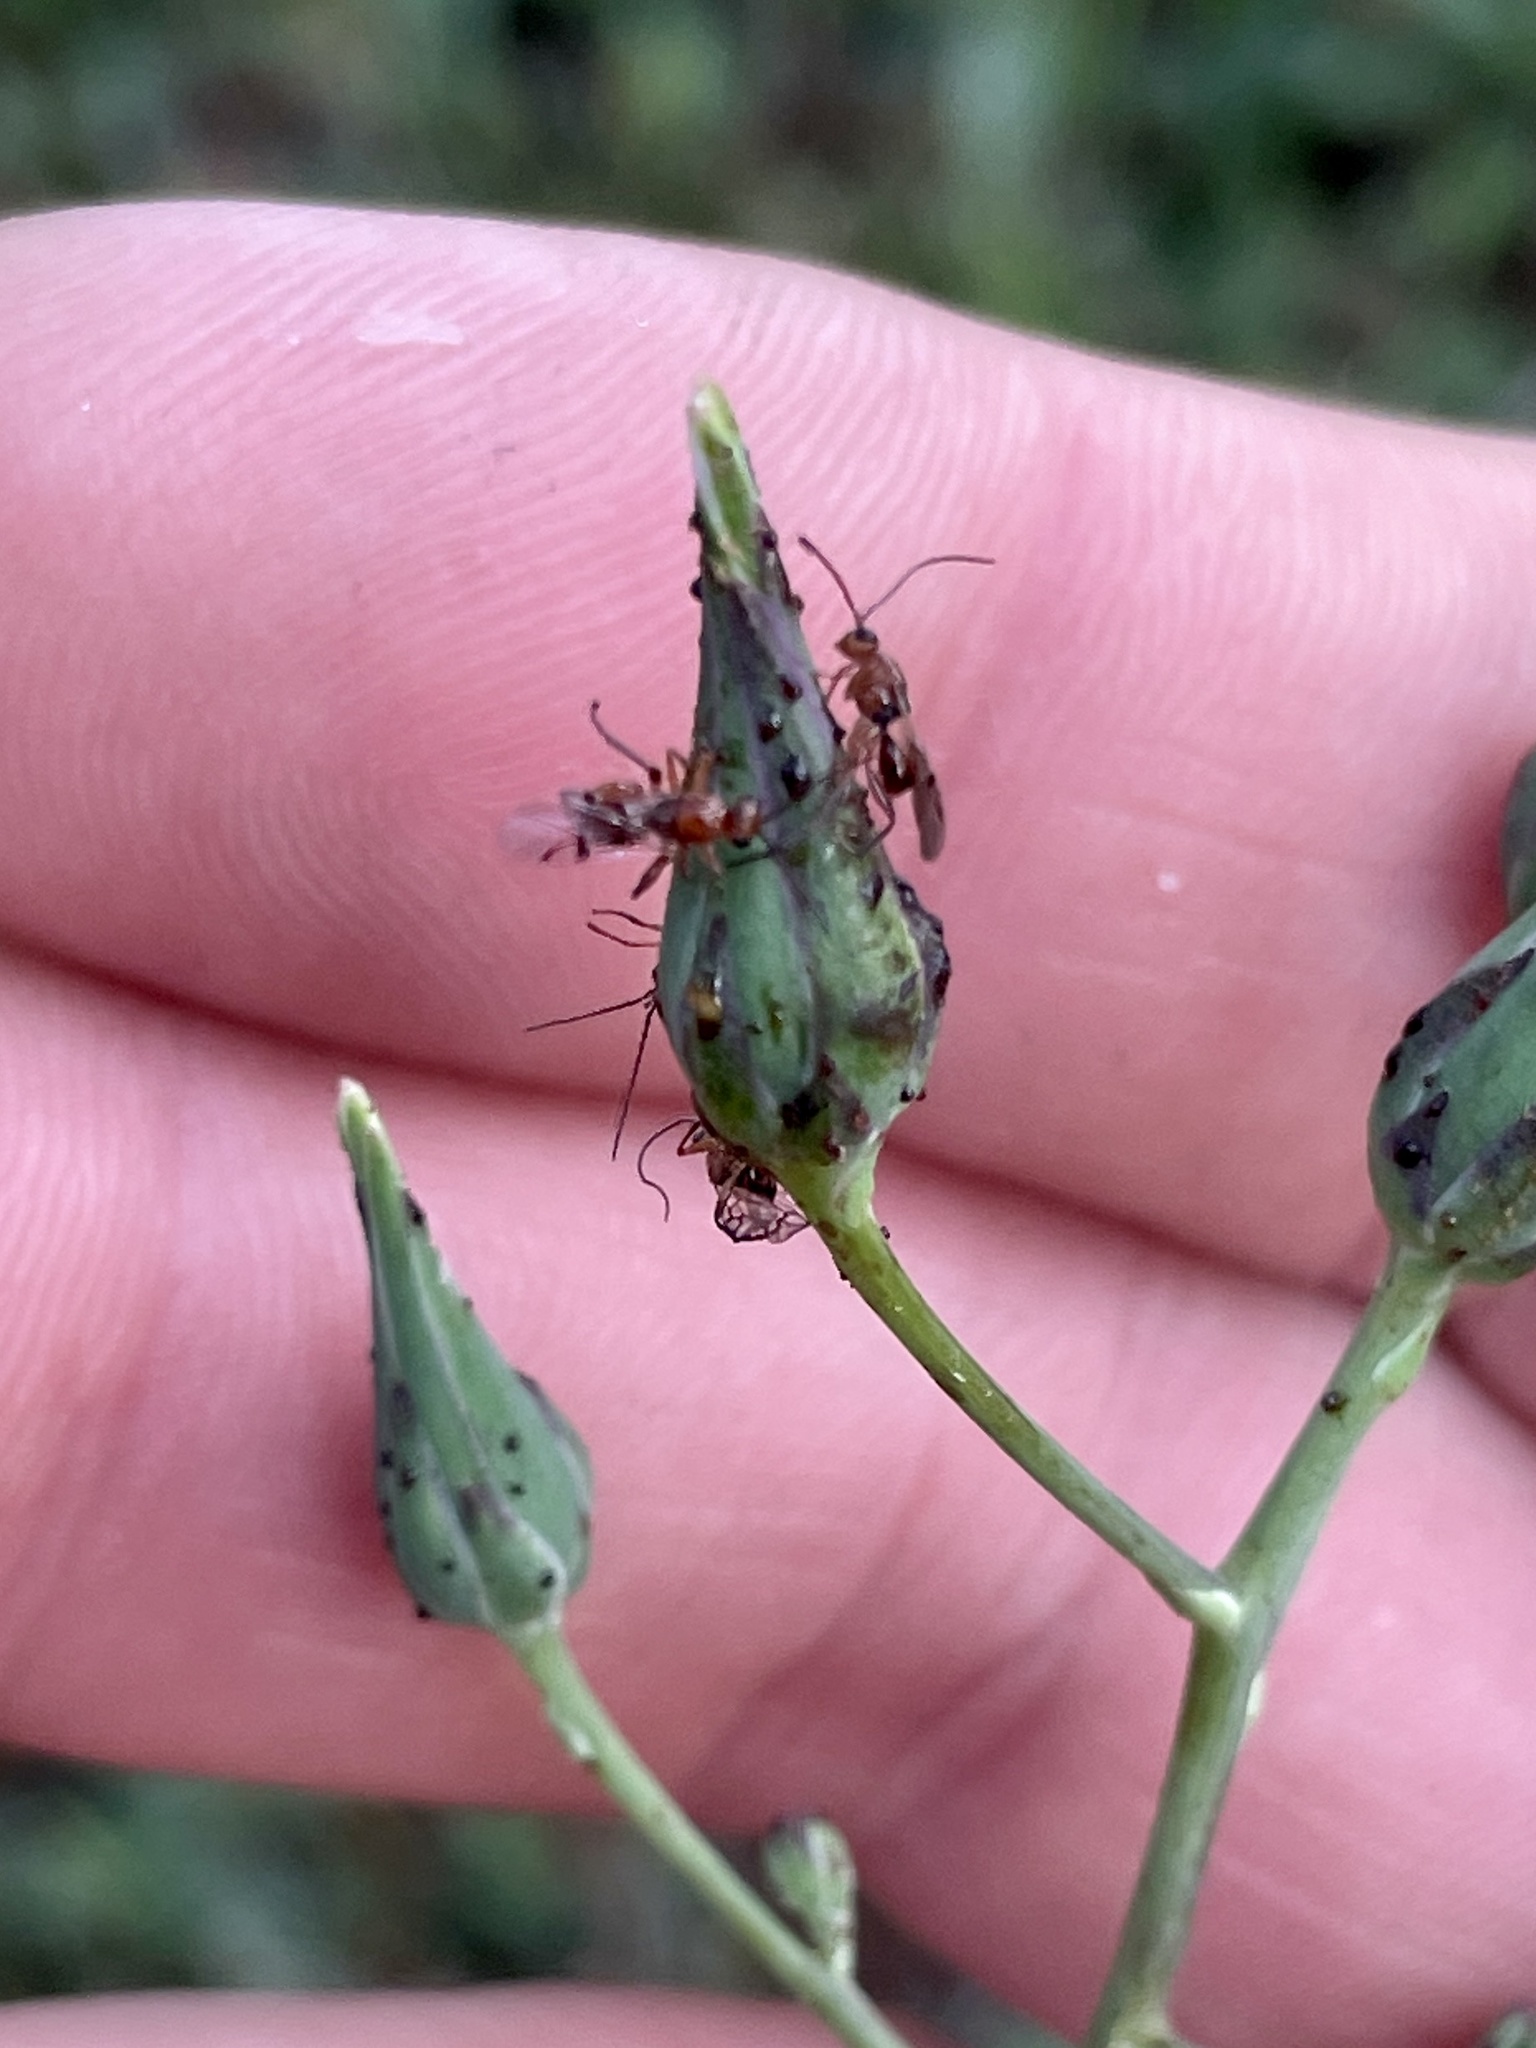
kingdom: Animalia
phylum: Arthropoda
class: Insecta
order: Hymenoptera
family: Cynipidae
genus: Belonocnema
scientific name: Belonocnema kinseyi
